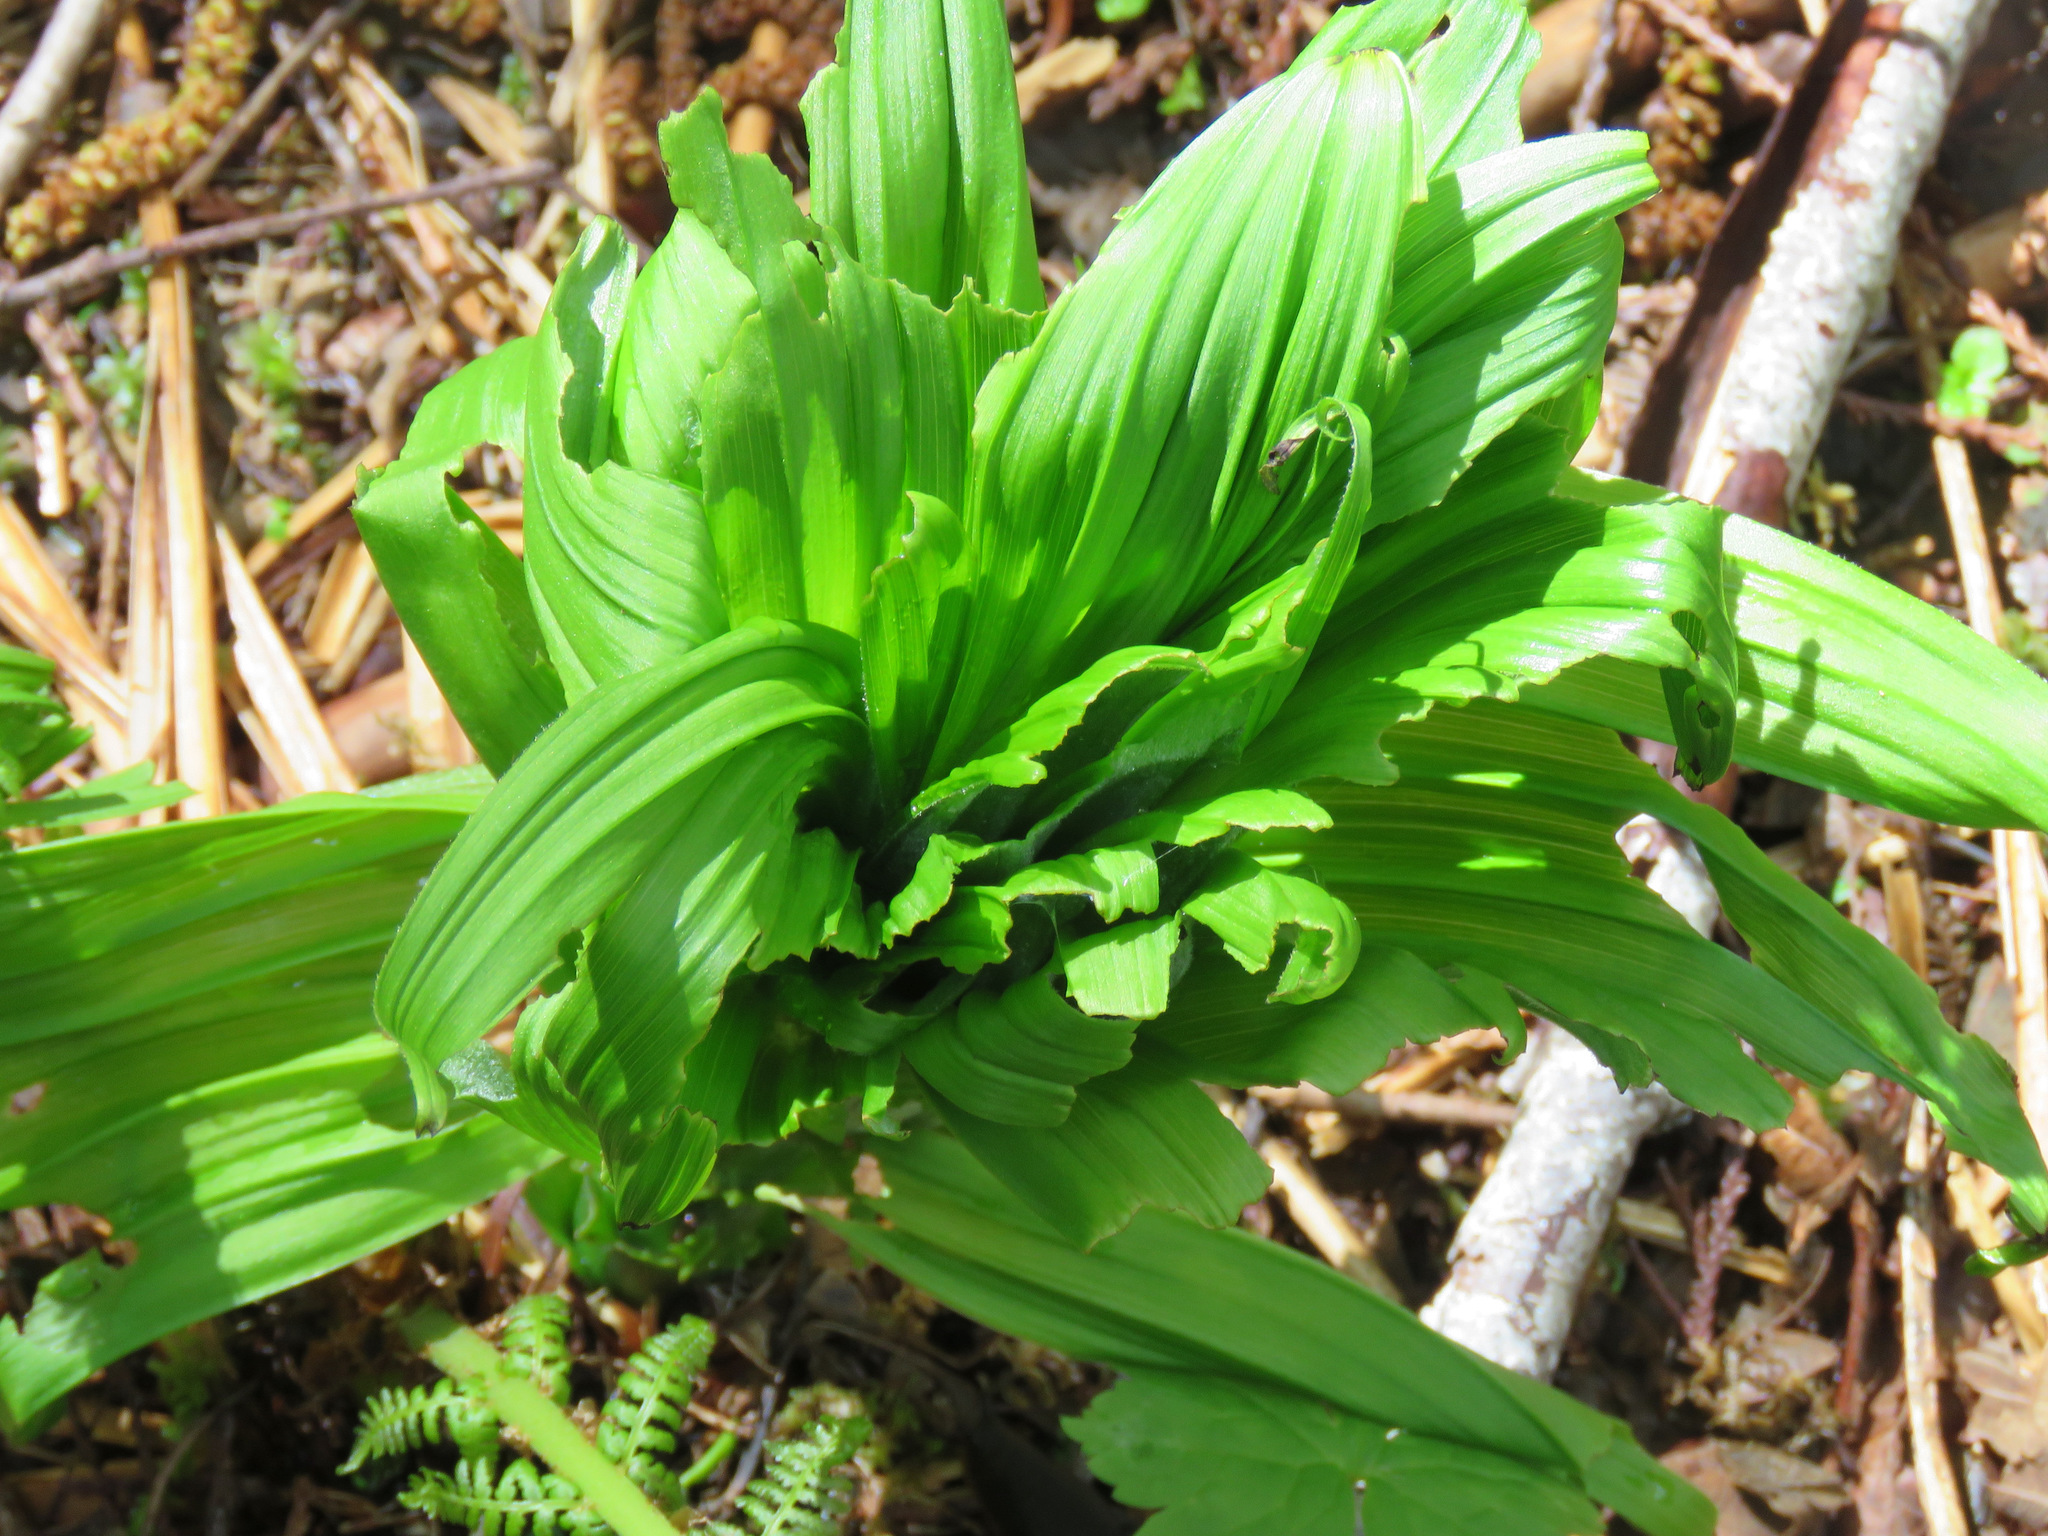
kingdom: Plantae
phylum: Tracheophyta
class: Liliopsida
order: Liliales
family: Melanthiaceae
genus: Veratrum
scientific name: Veratrum viride
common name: American false hellebore
